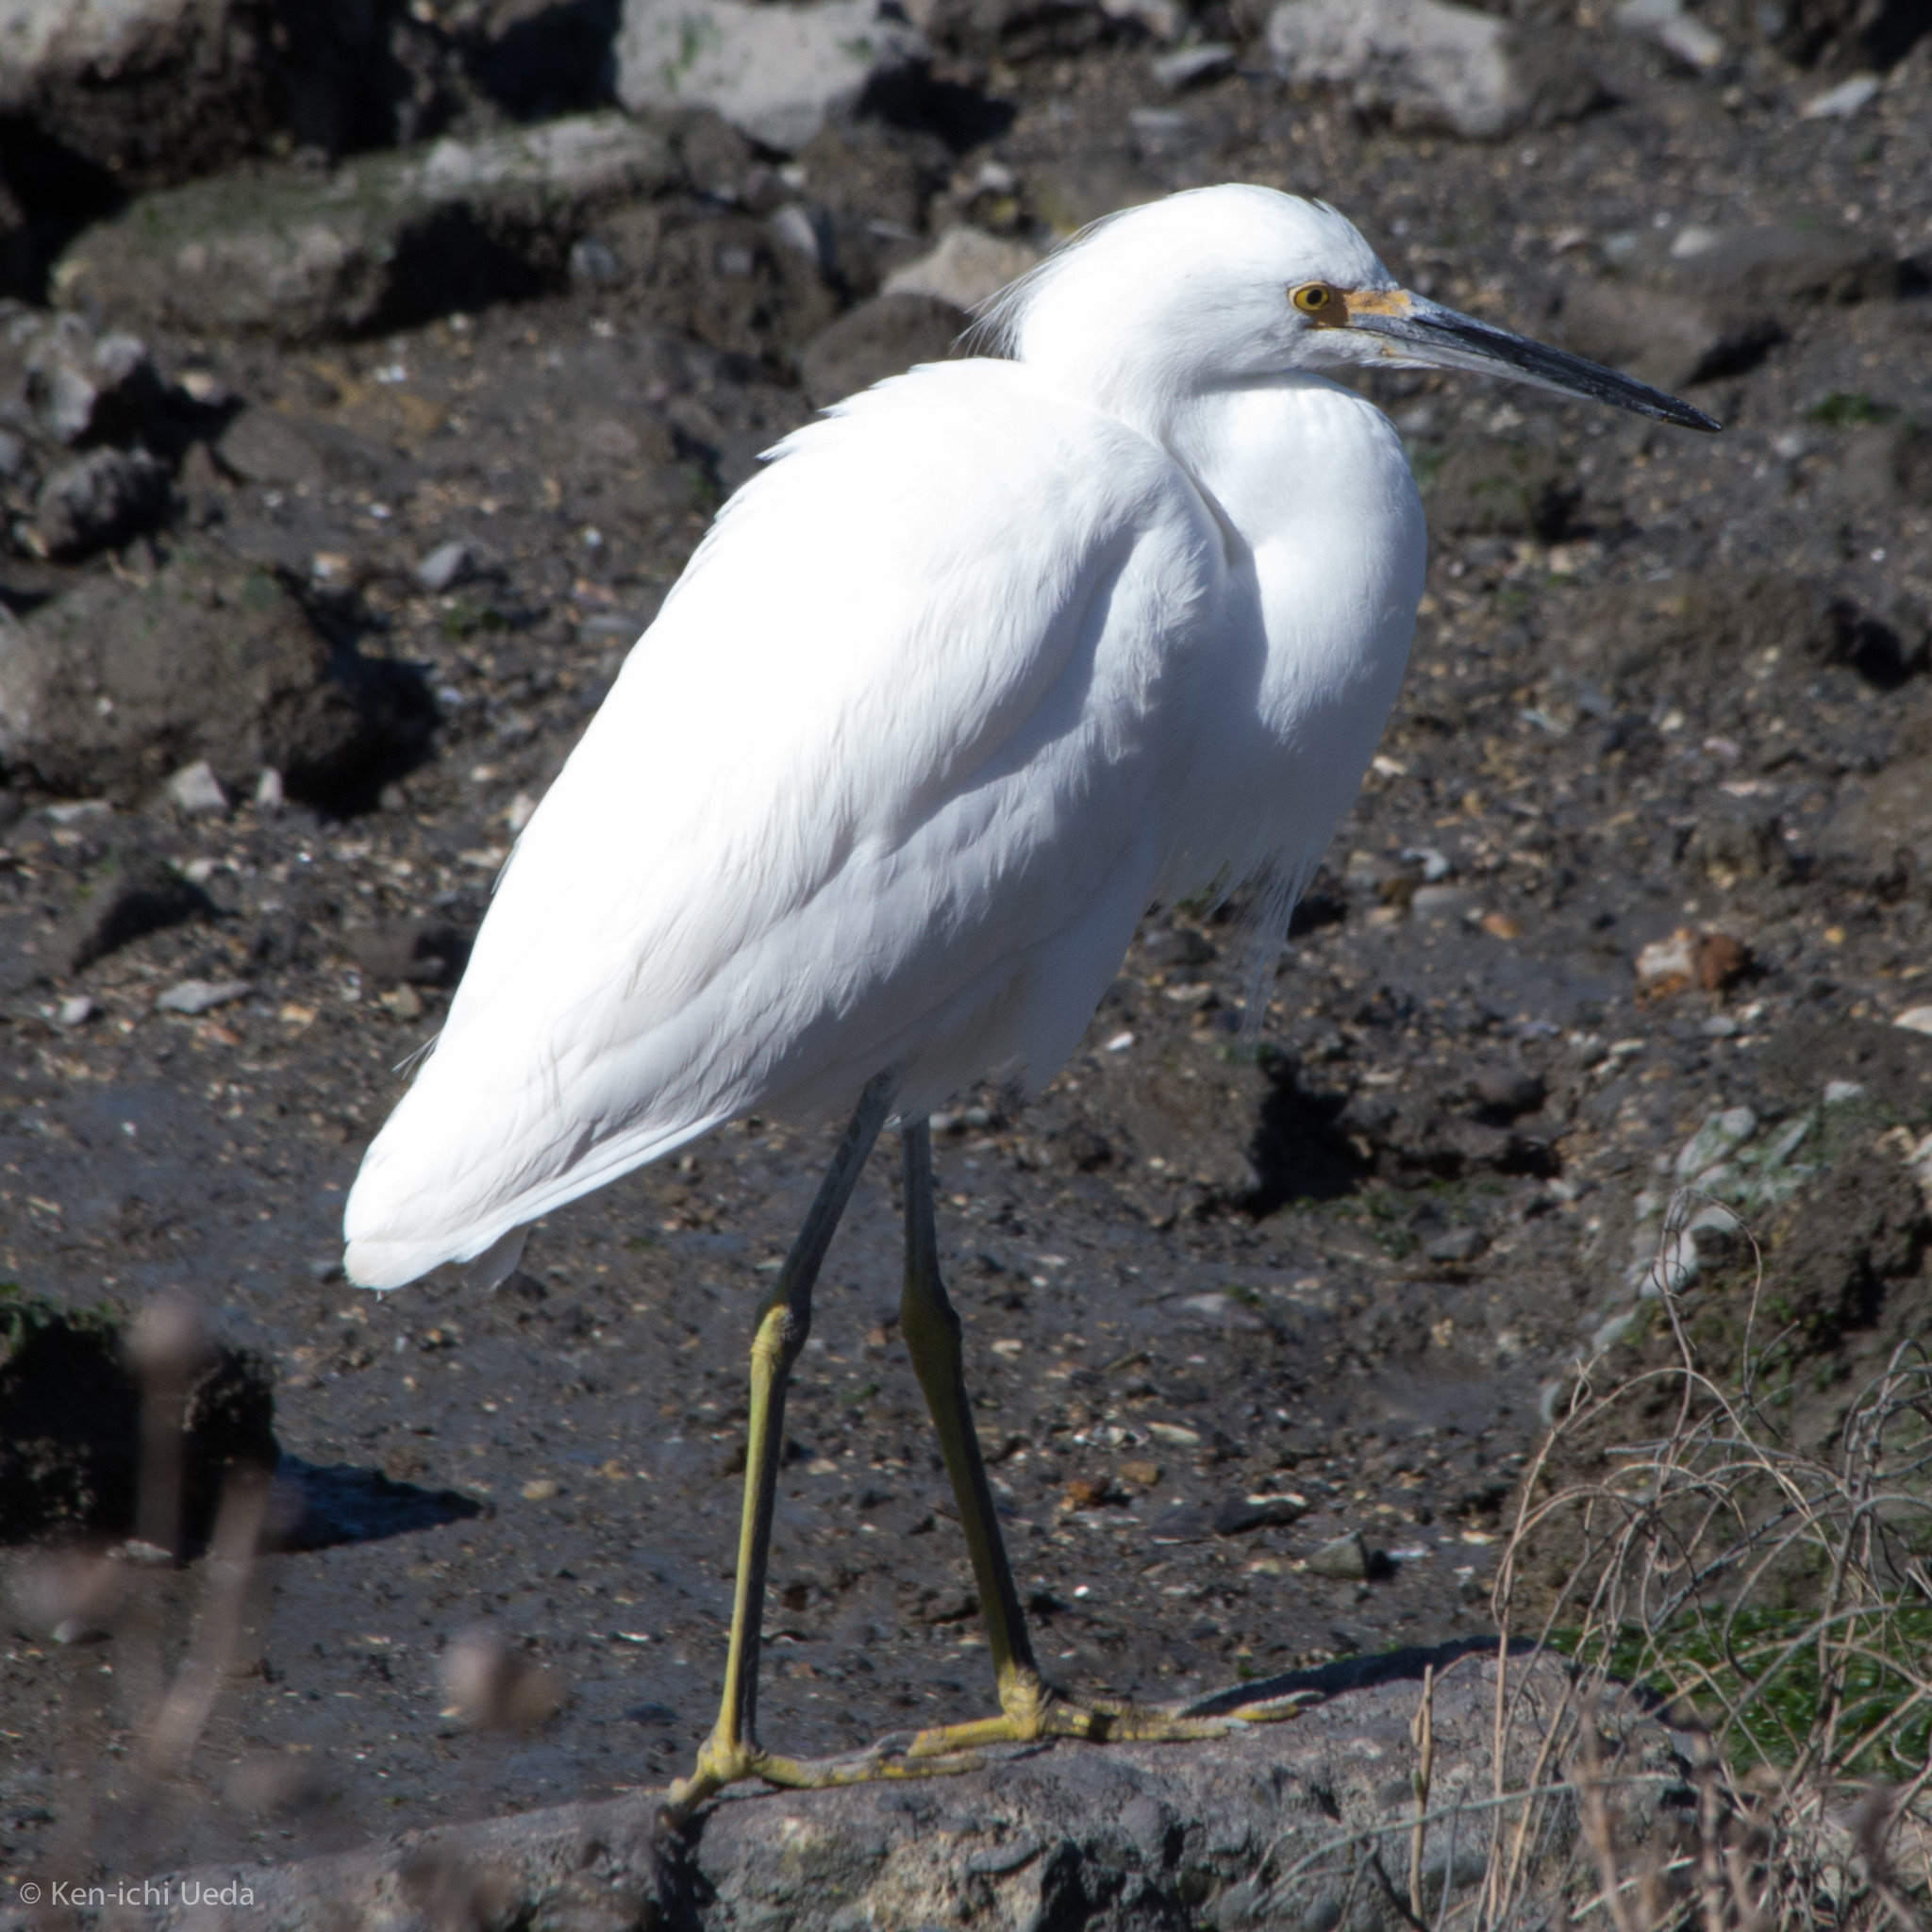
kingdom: Animalia
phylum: Chordata
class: Aves
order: Pelecaniformes
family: Ardeidae
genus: Egretta
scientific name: Egretta thula
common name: Snowy egret
